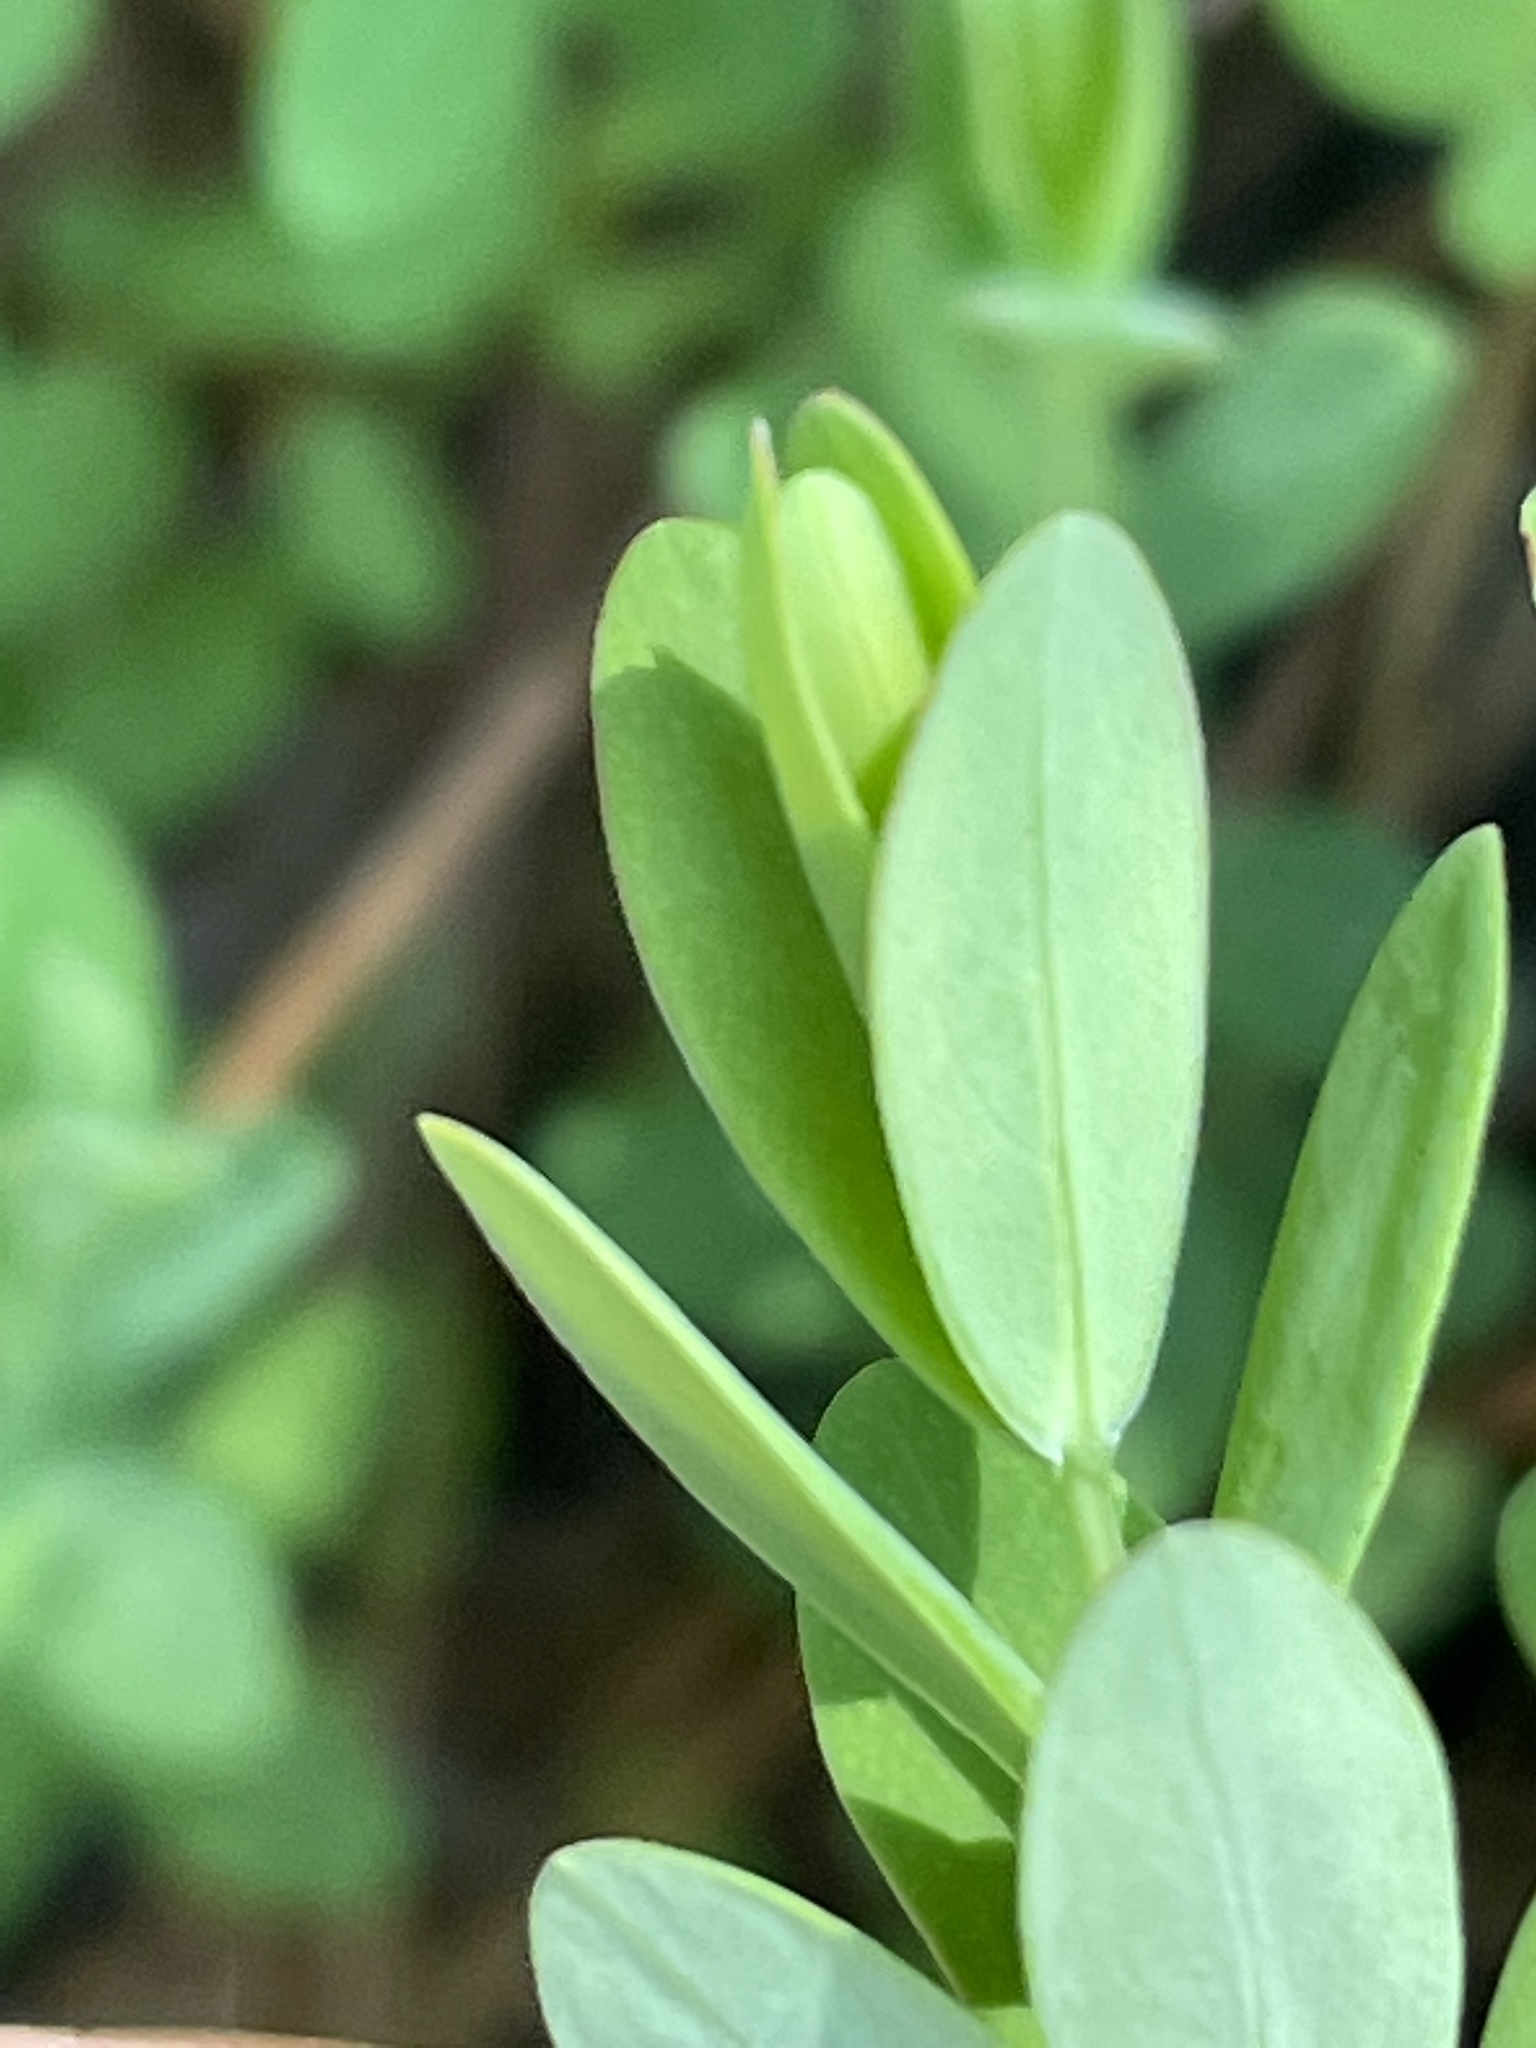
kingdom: Plantae
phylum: Tracheophyta
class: Magnoliopsida
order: Malpighiales
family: Hypericaceae
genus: Hypericum
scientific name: Hypericum hypericoides
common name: St. andrew's cross
